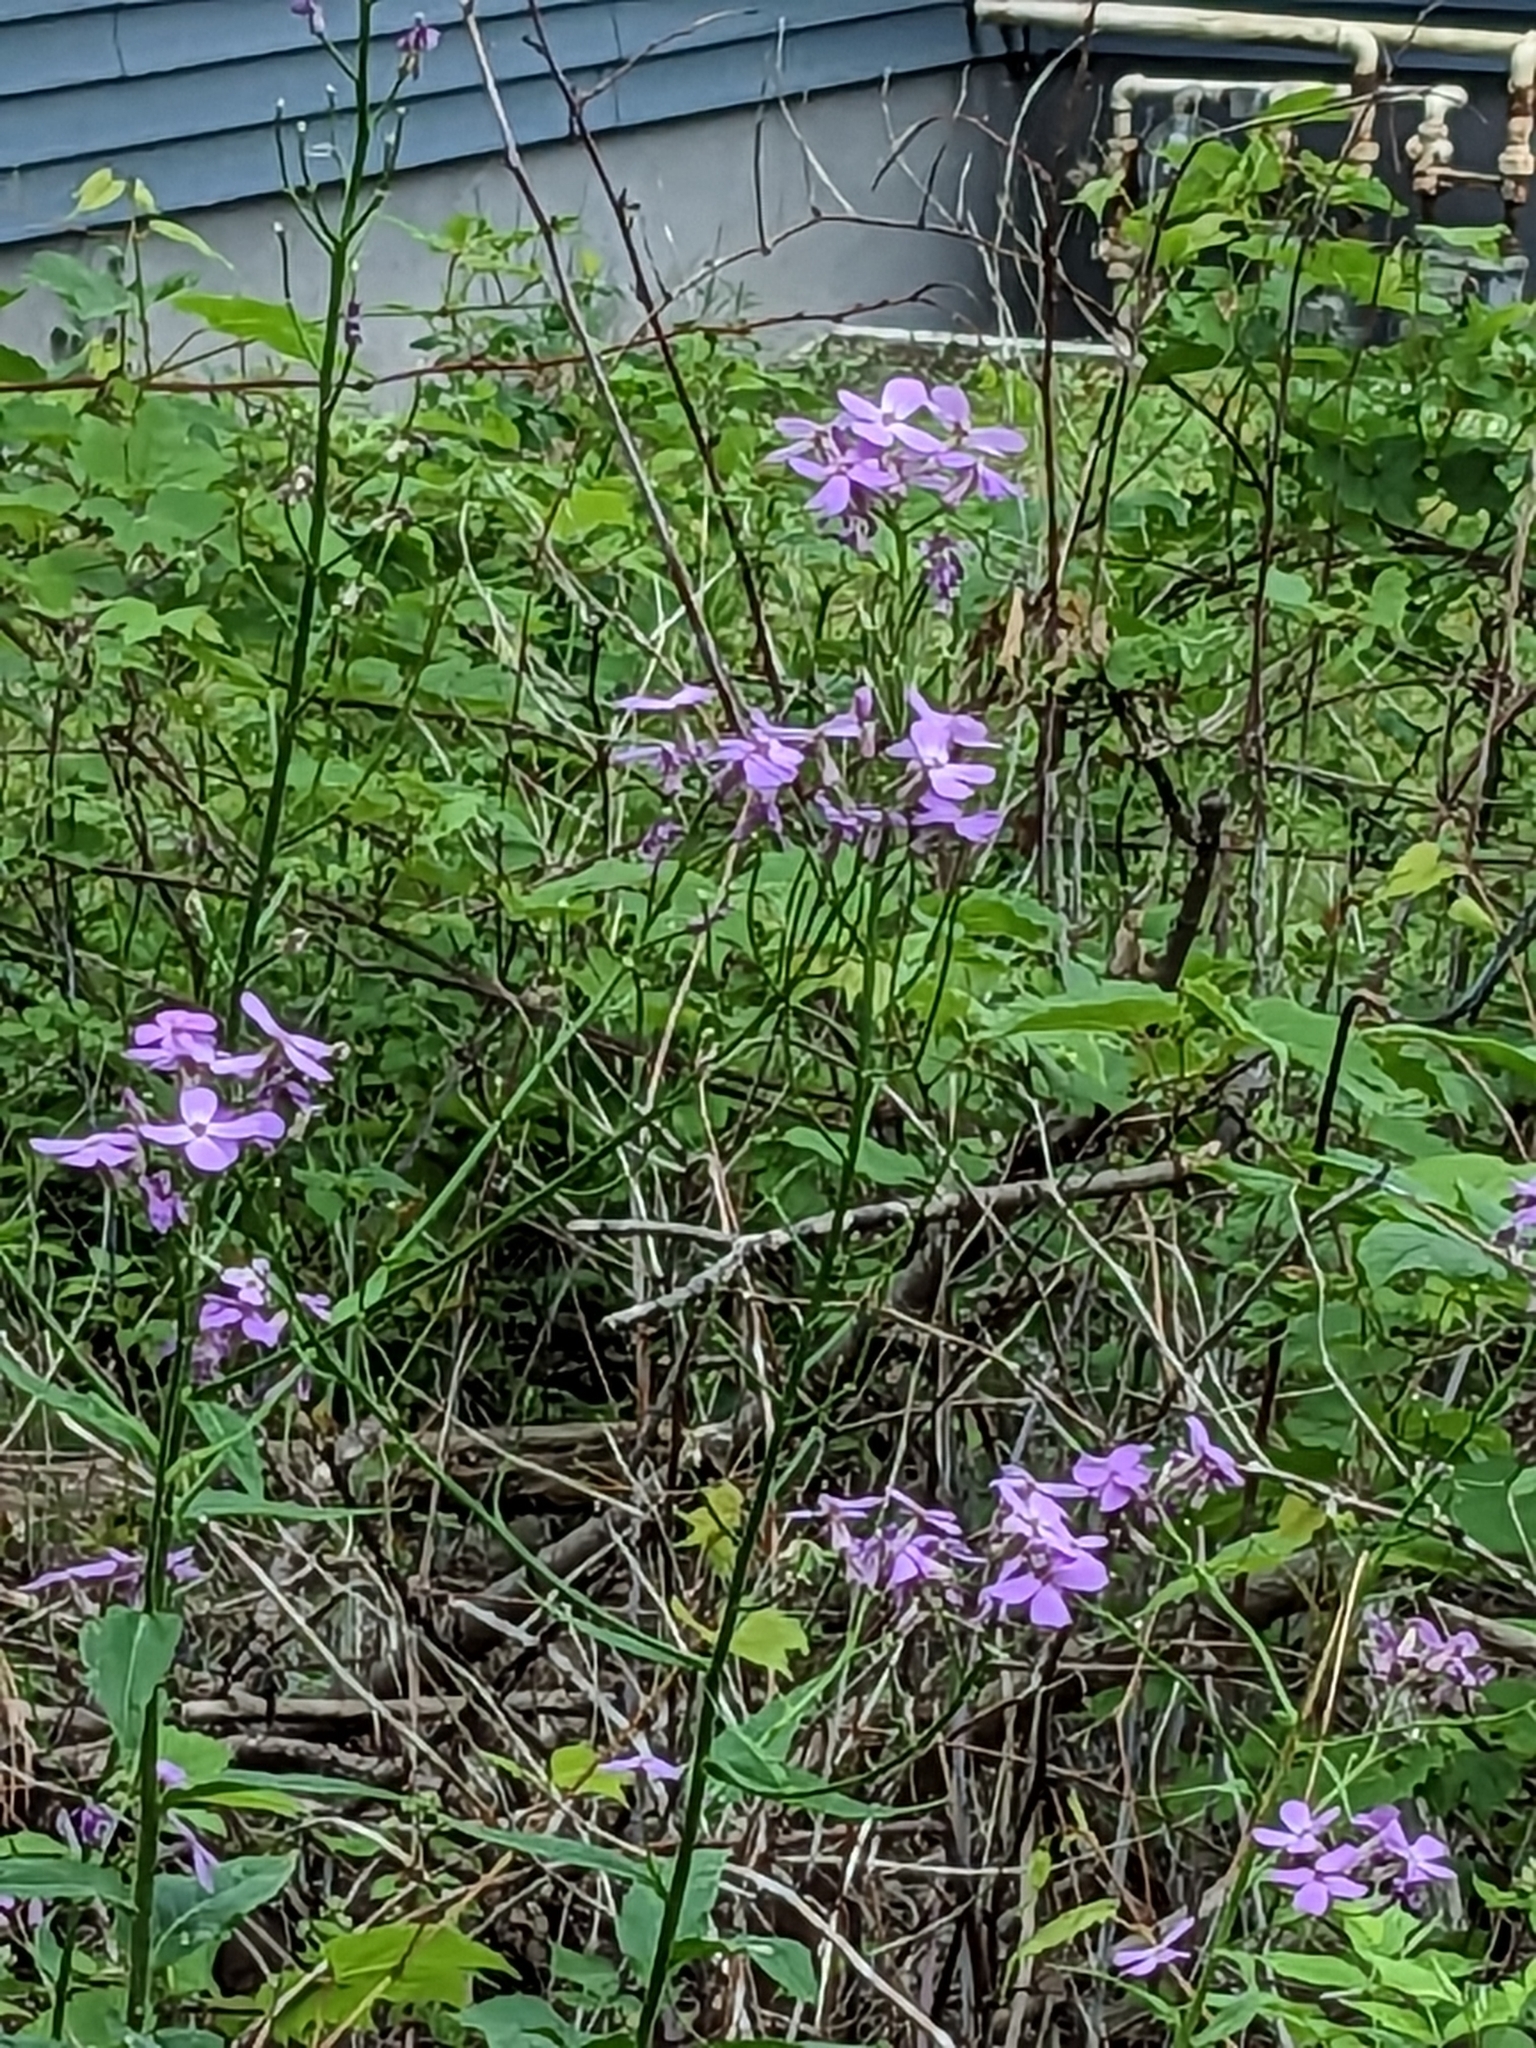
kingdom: Plantae
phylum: Tracheophyta
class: Magnoliopsida
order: Brassicales
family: Brassicaceae
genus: Hesperis
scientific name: Hesperis matronalis
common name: Dame's-violet
